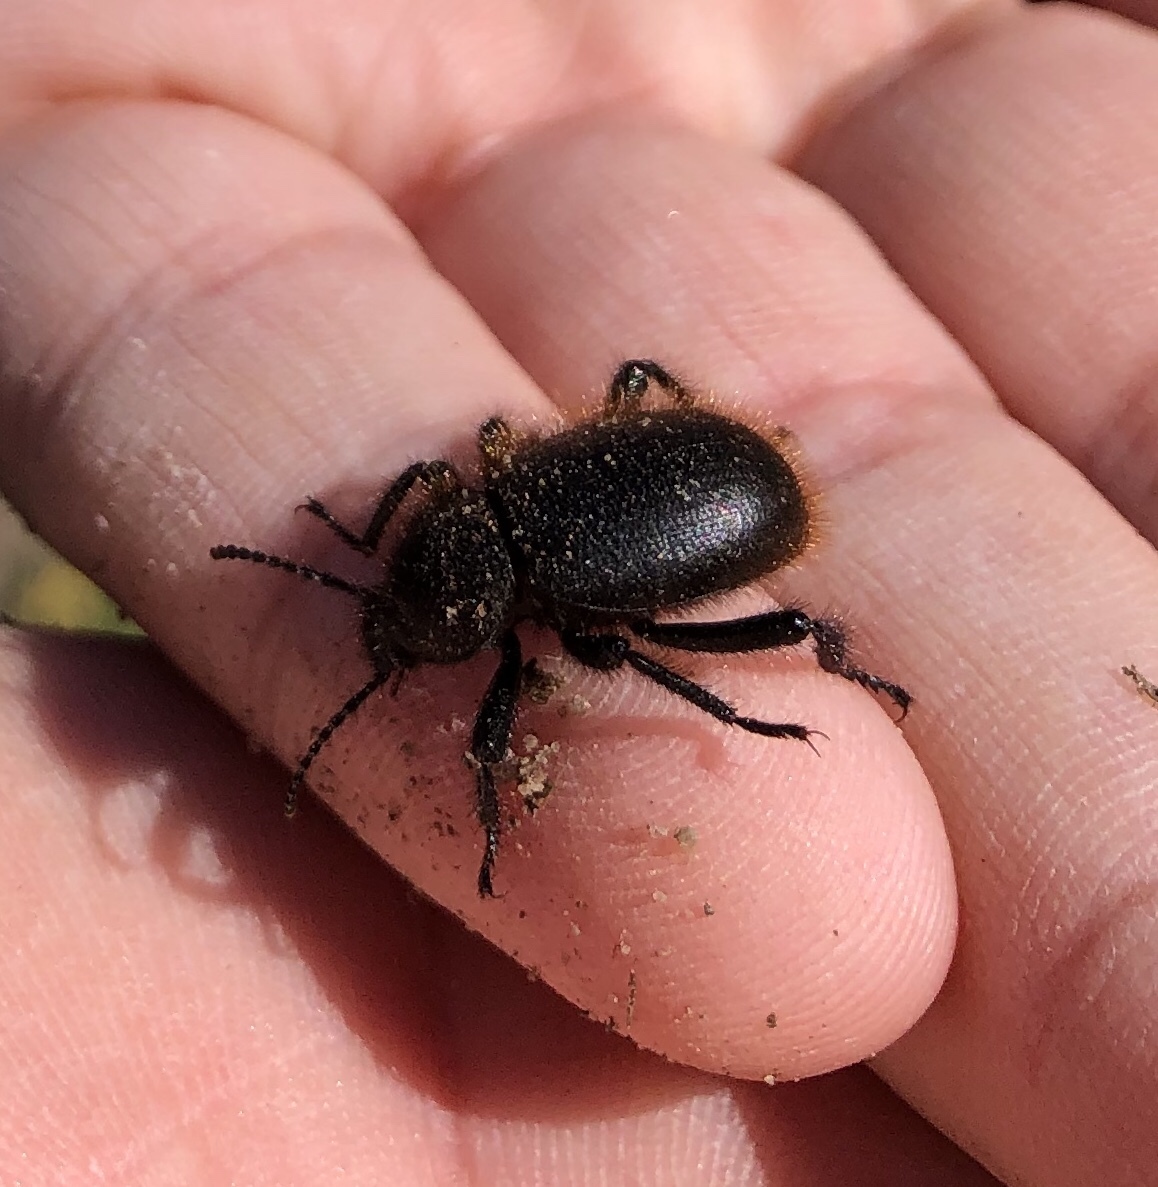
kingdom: Animalia
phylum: Arthropoda
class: Insecta
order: Coleoptera
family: Tenebrionidae
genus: Eleodes
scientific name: Eleodes osculans
